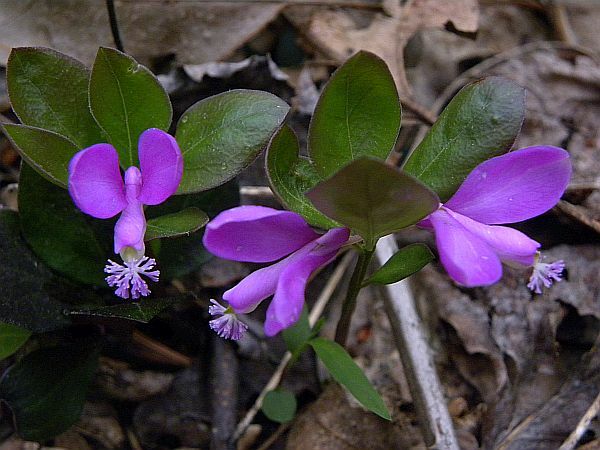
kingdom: Plantae
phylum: Tracheophyta
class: Magnoliopsida
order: Fabales
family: Polygalaceae
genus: Polygaloides
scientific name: Polygaloides paucifolia
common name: Bird-on-the-wing
